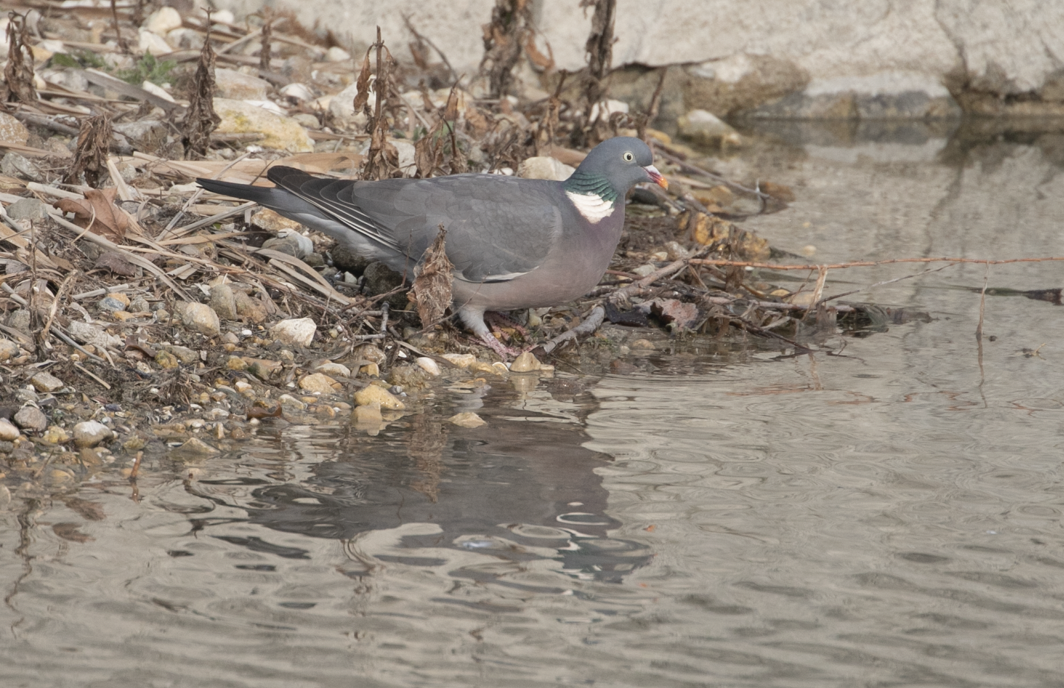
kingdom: Animalia
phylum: Chordata
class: Aves
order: Columbiformes
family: Columbidae
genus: Columba
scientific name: Columba palumbus
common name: Common wood pigeon
